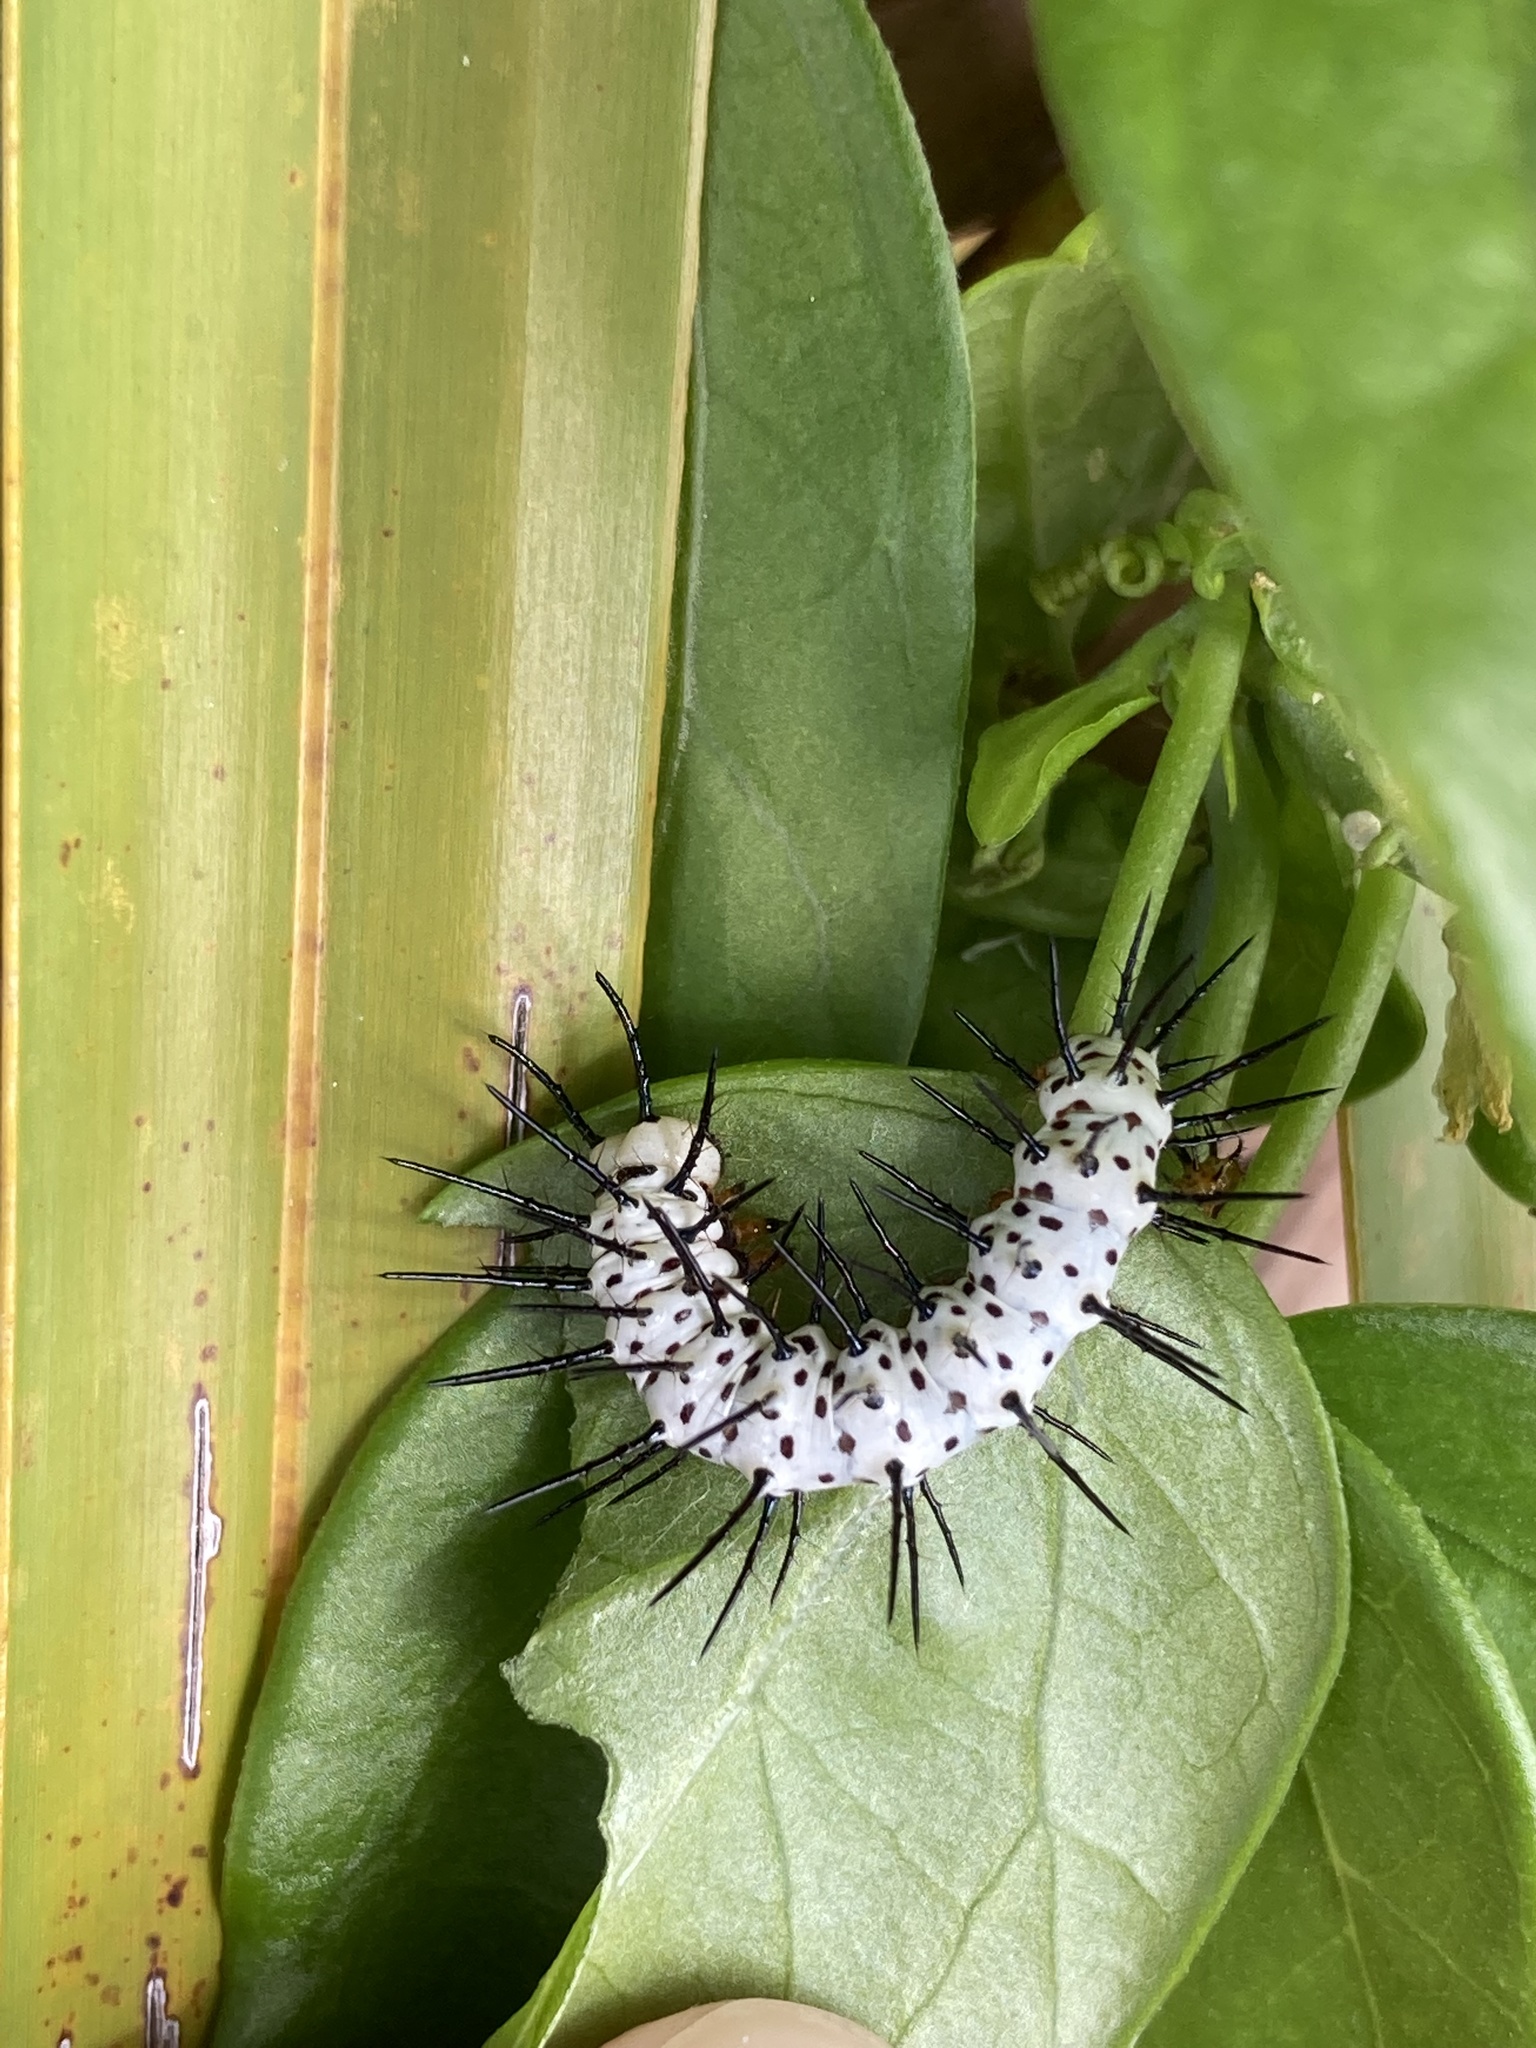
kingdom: Animalia
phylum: Arthropoda
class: Insecta
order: Lepidoptera
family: Nymphalidae
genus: Heliconius
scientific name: Heliconius charithonia
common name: Zebra long wing
